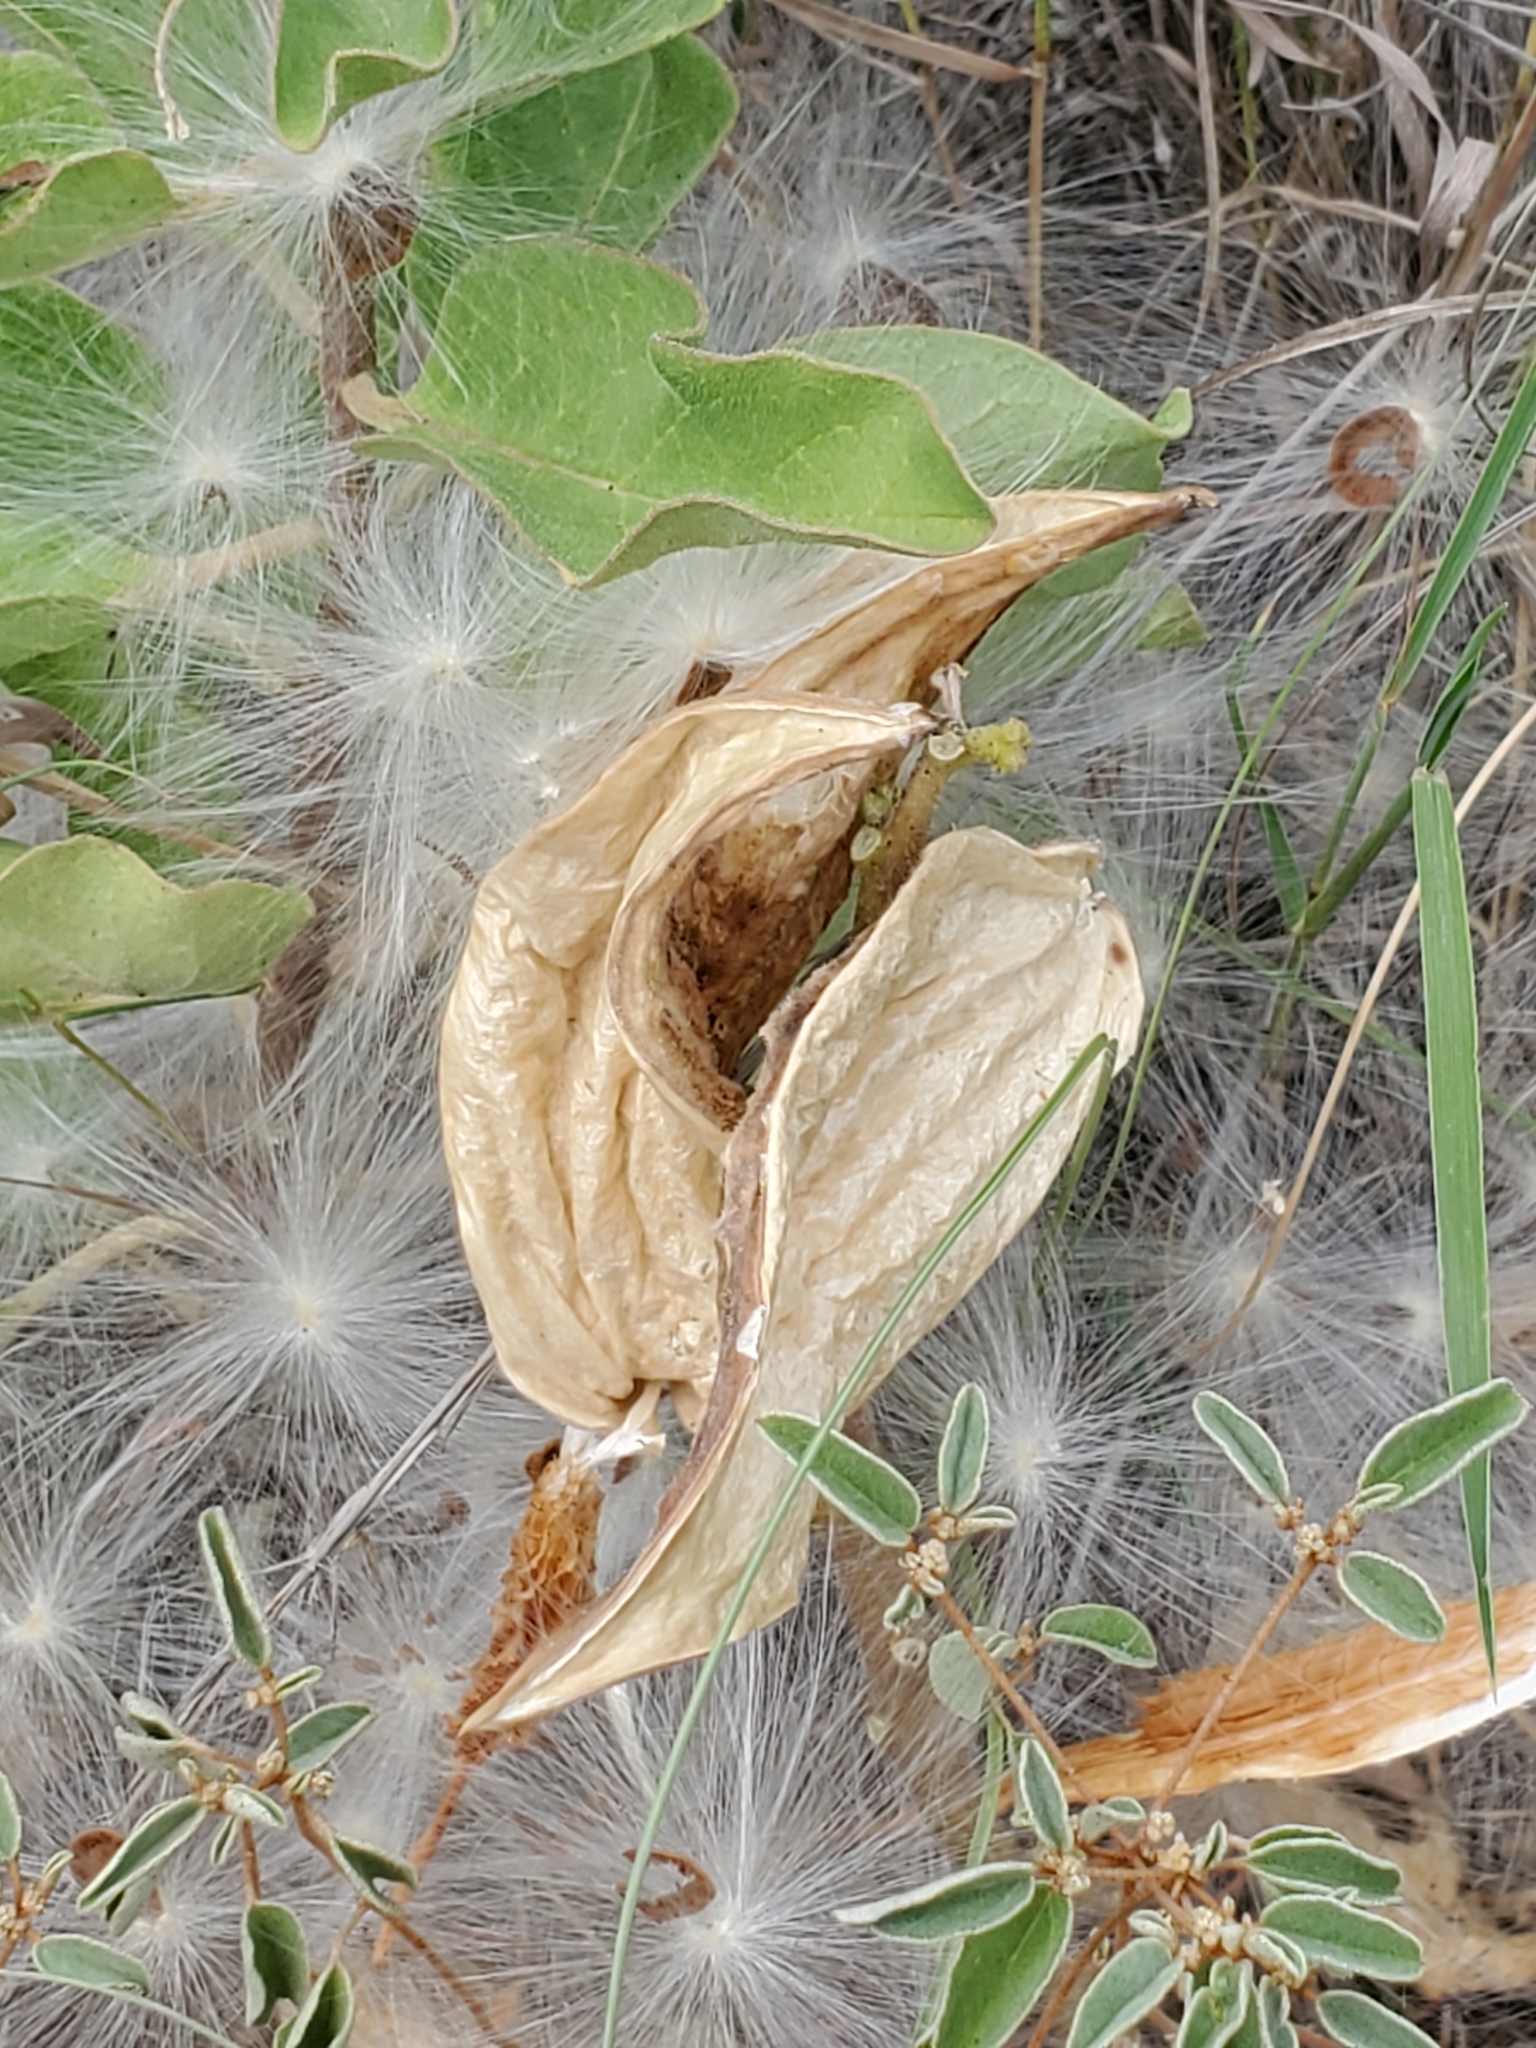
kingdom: Plantae
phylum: Tracheophyta
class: Magnoliopsida
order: Gentianales
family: Apocynaceae
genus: Asclepias
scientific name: Asclepias oenotheroides
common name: Zizotes milkweed
